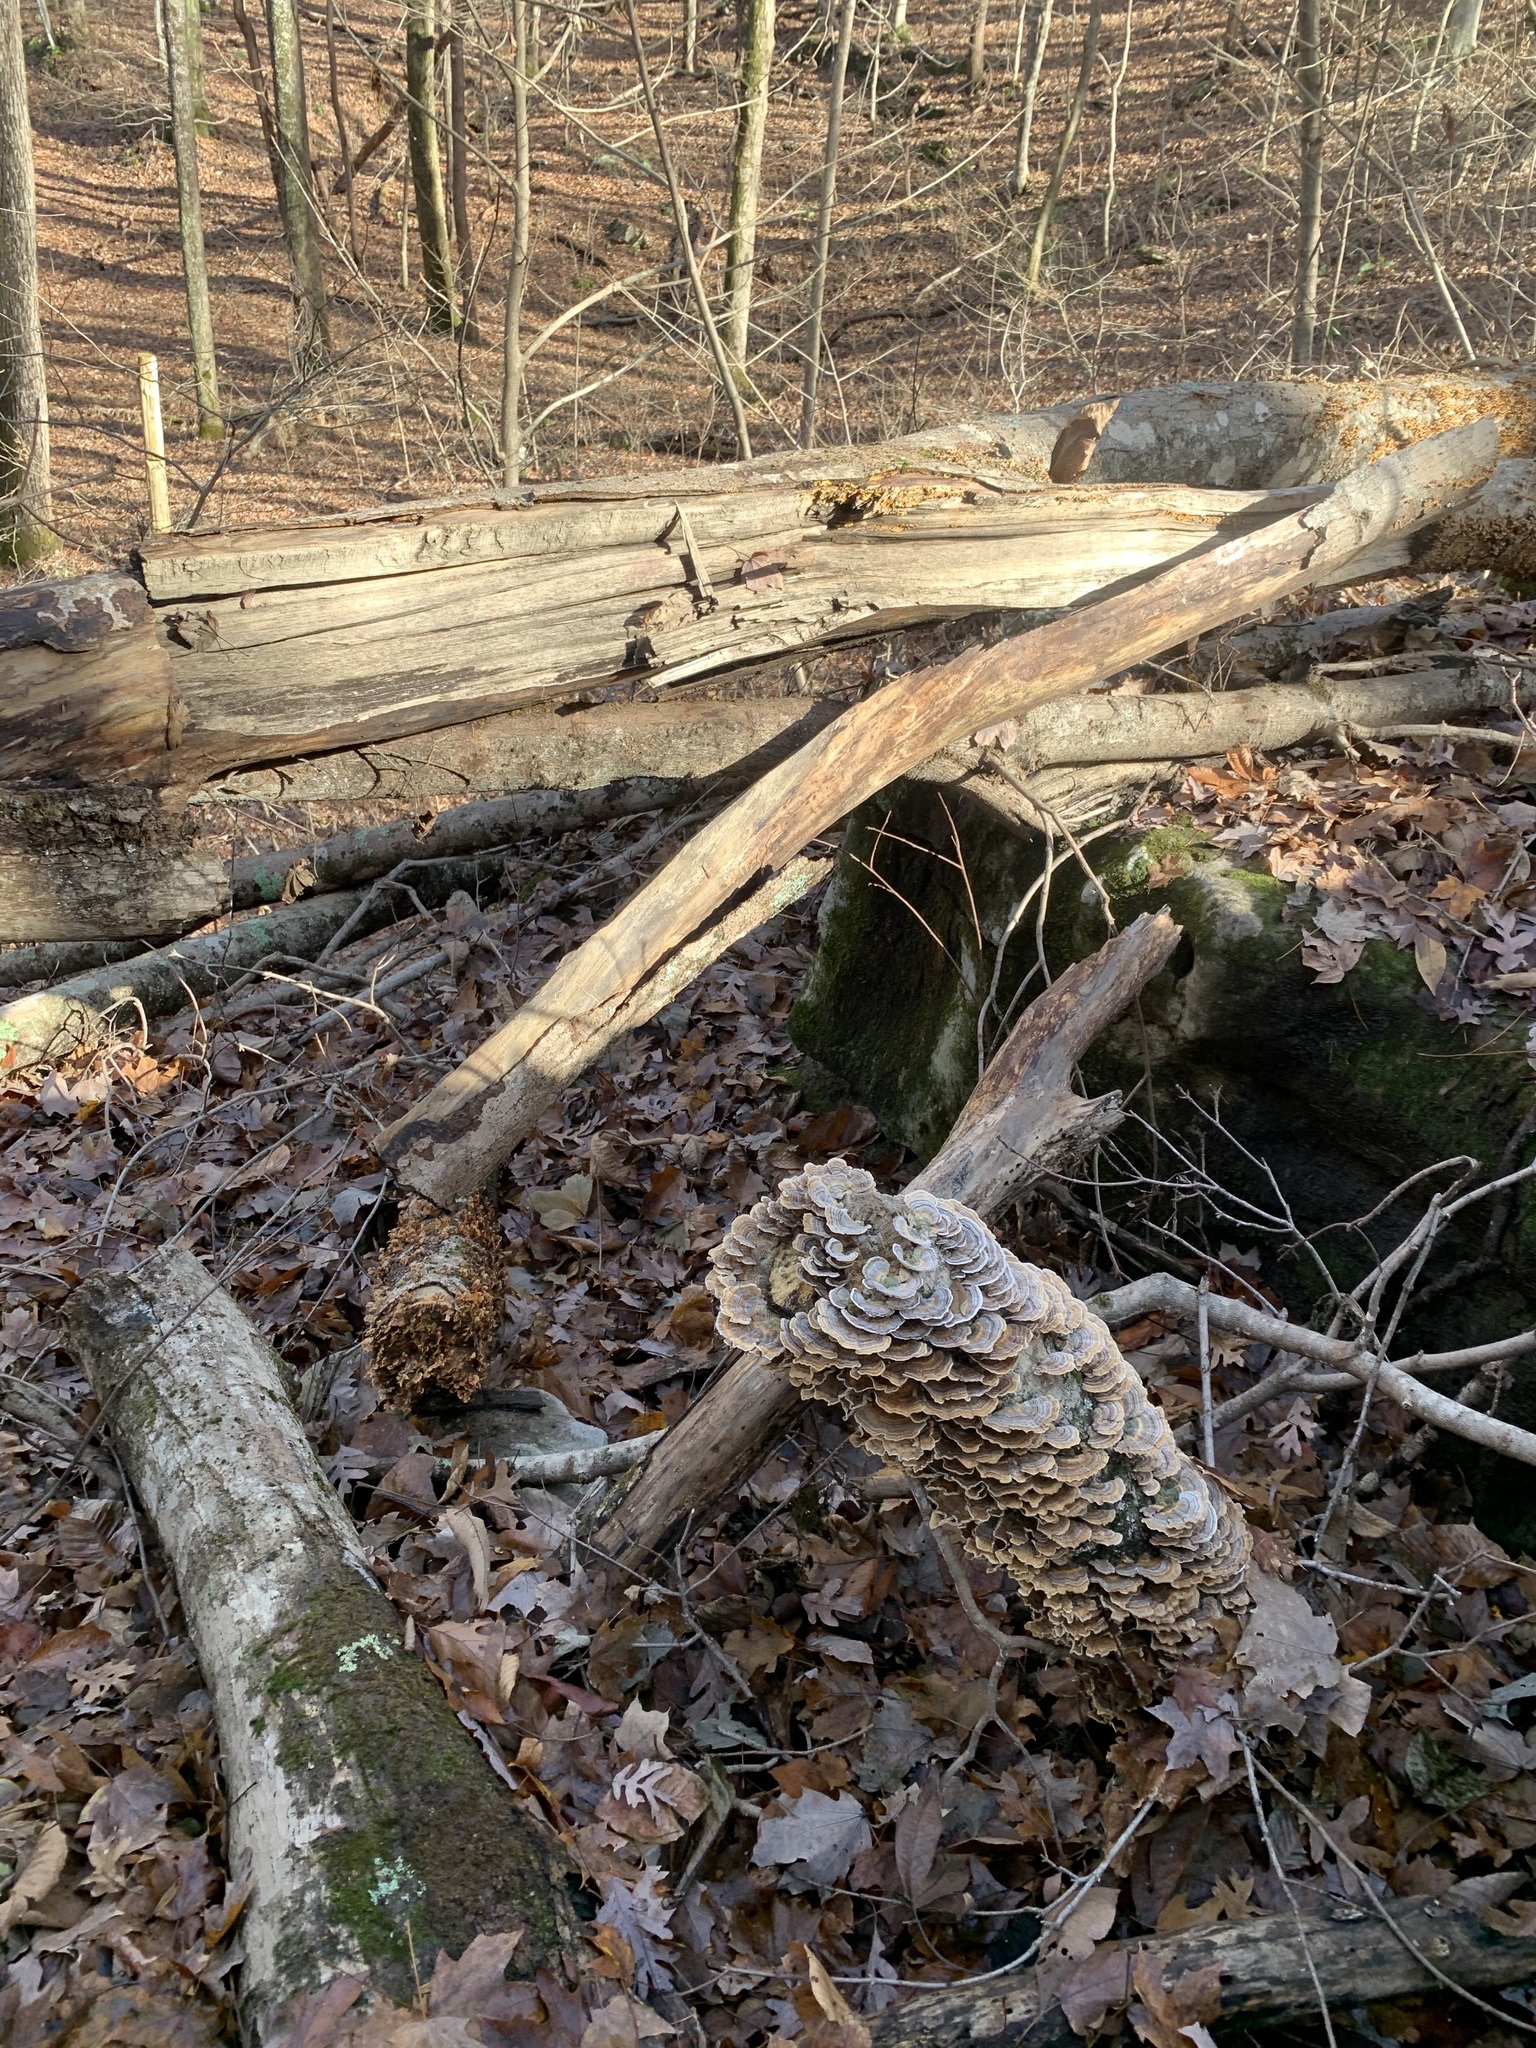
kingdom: Fungi
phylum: Basidiomycota
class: Agaricomycetes
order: Polyporales
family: Polyporaceae
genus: Trametes
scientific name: Trametes versicolor
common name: Turkeytail
